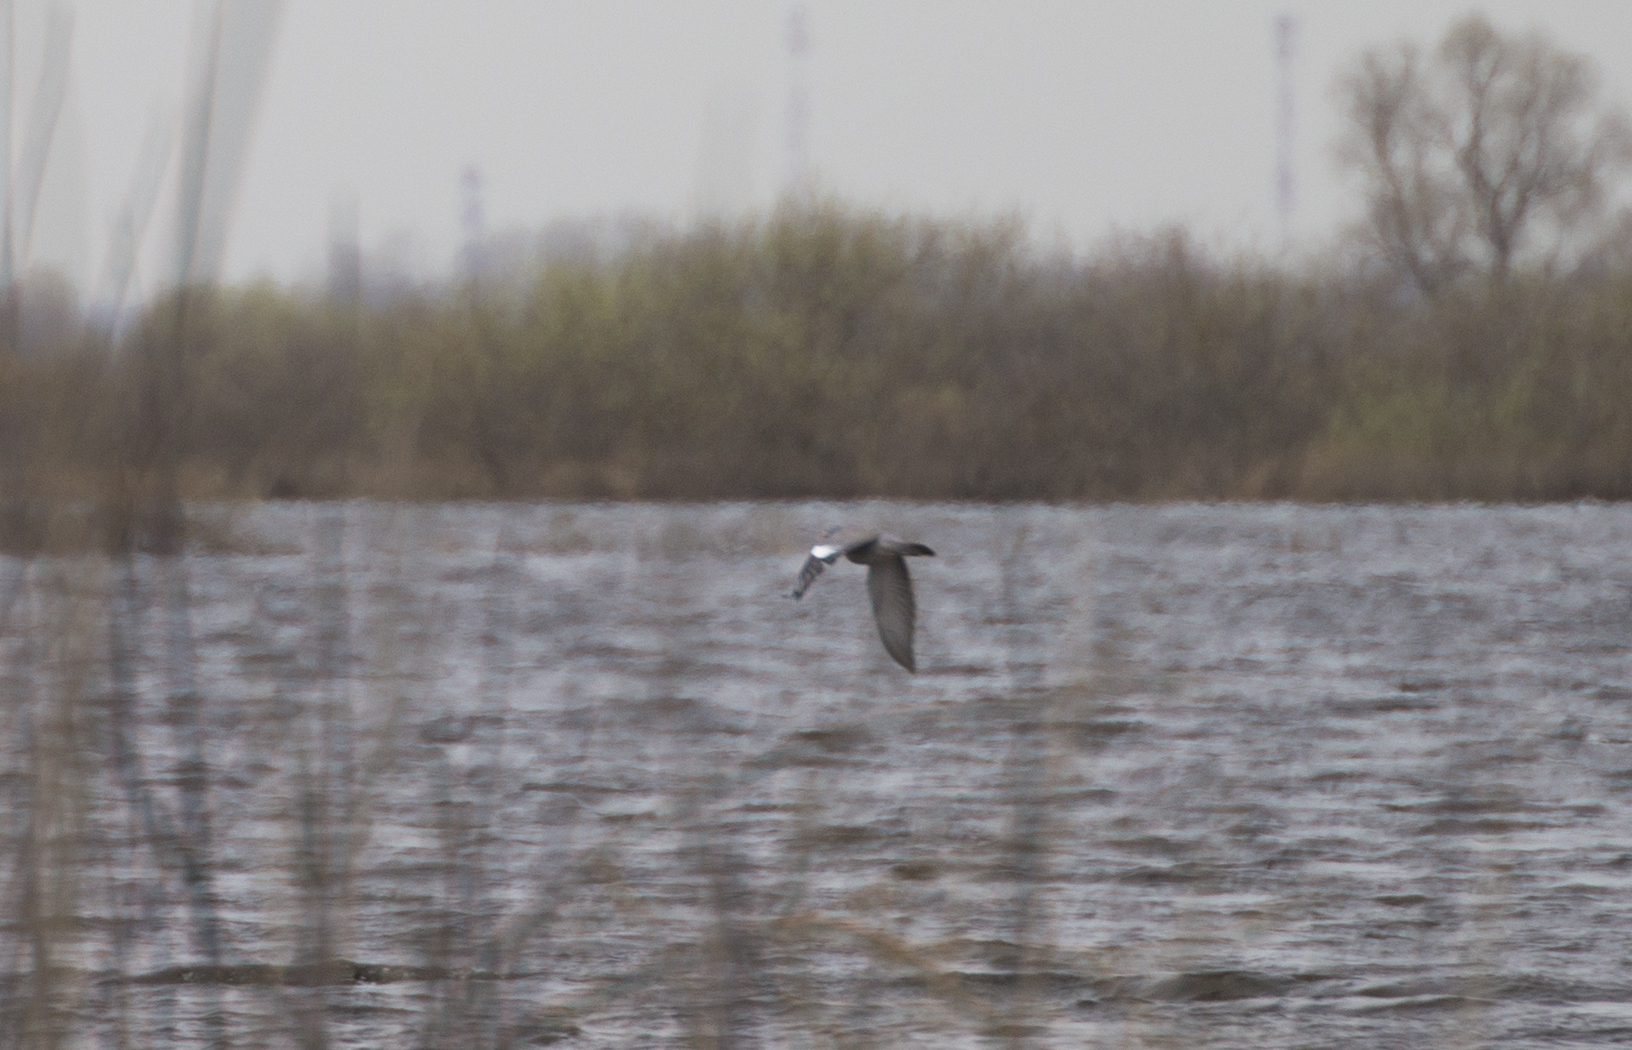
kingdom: Animalia
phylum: Chordata
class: Aves
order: Columbiformes
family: Columbidae
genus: Columba
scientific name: Columba palumbus
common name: Common wood pigeon
